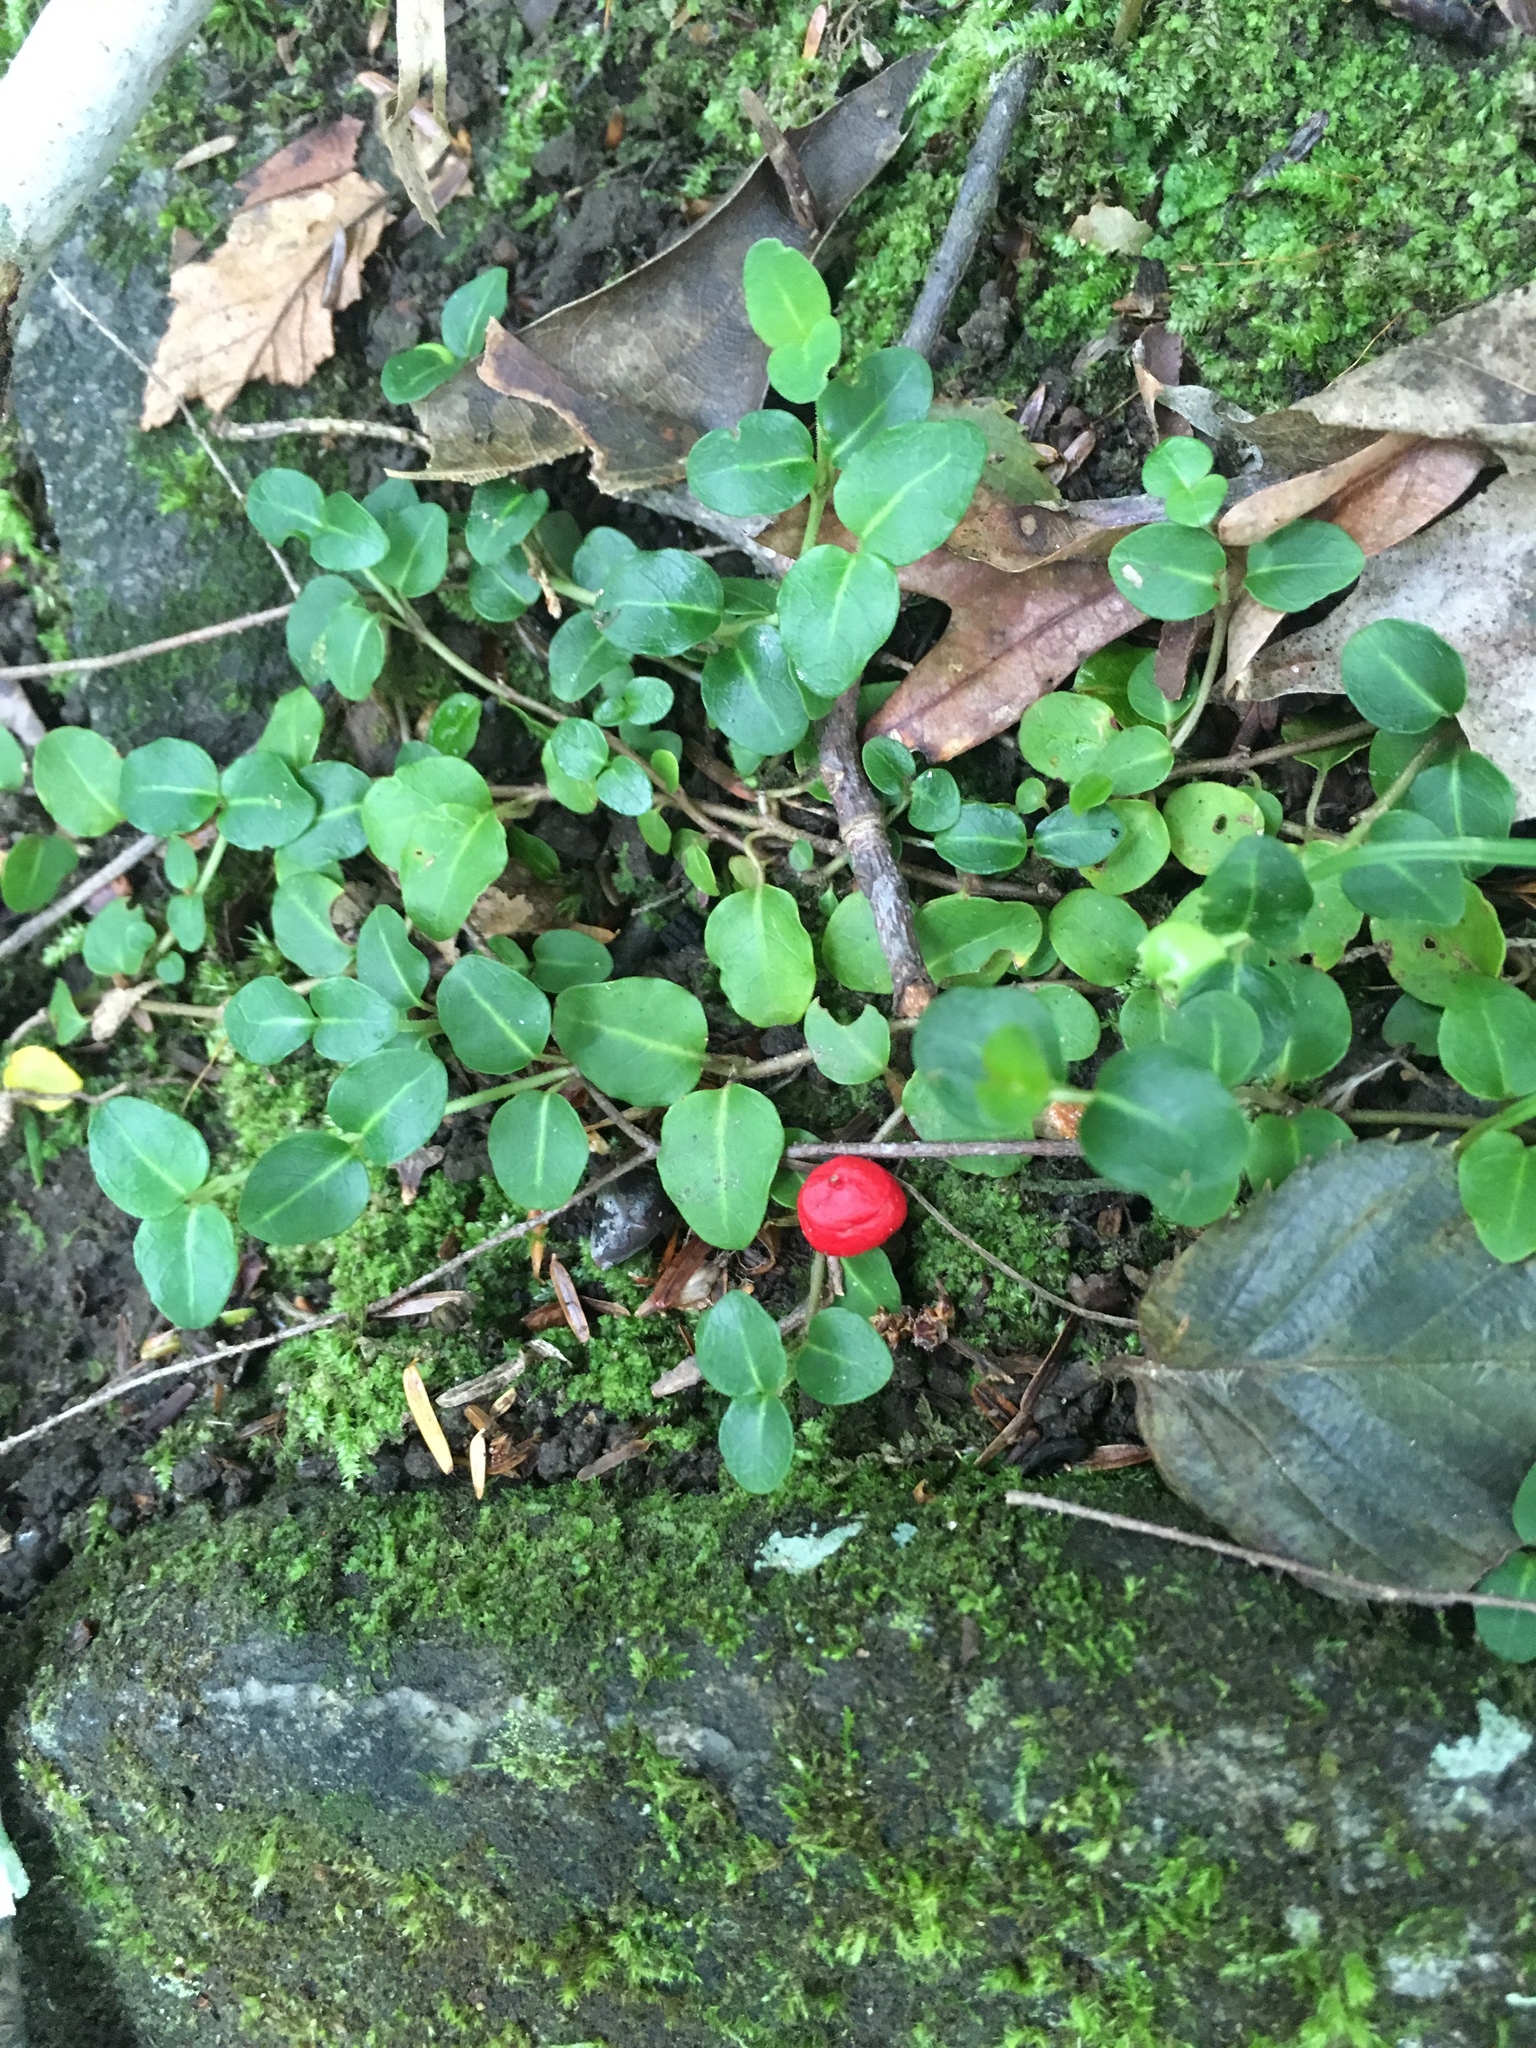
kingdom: Plantae
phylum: Tracheophyta
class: Magnoliopsida
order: Gentianales
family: Rubiaceae
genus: Mitchella
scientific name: Mitchella repens
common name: Partridge-berry
